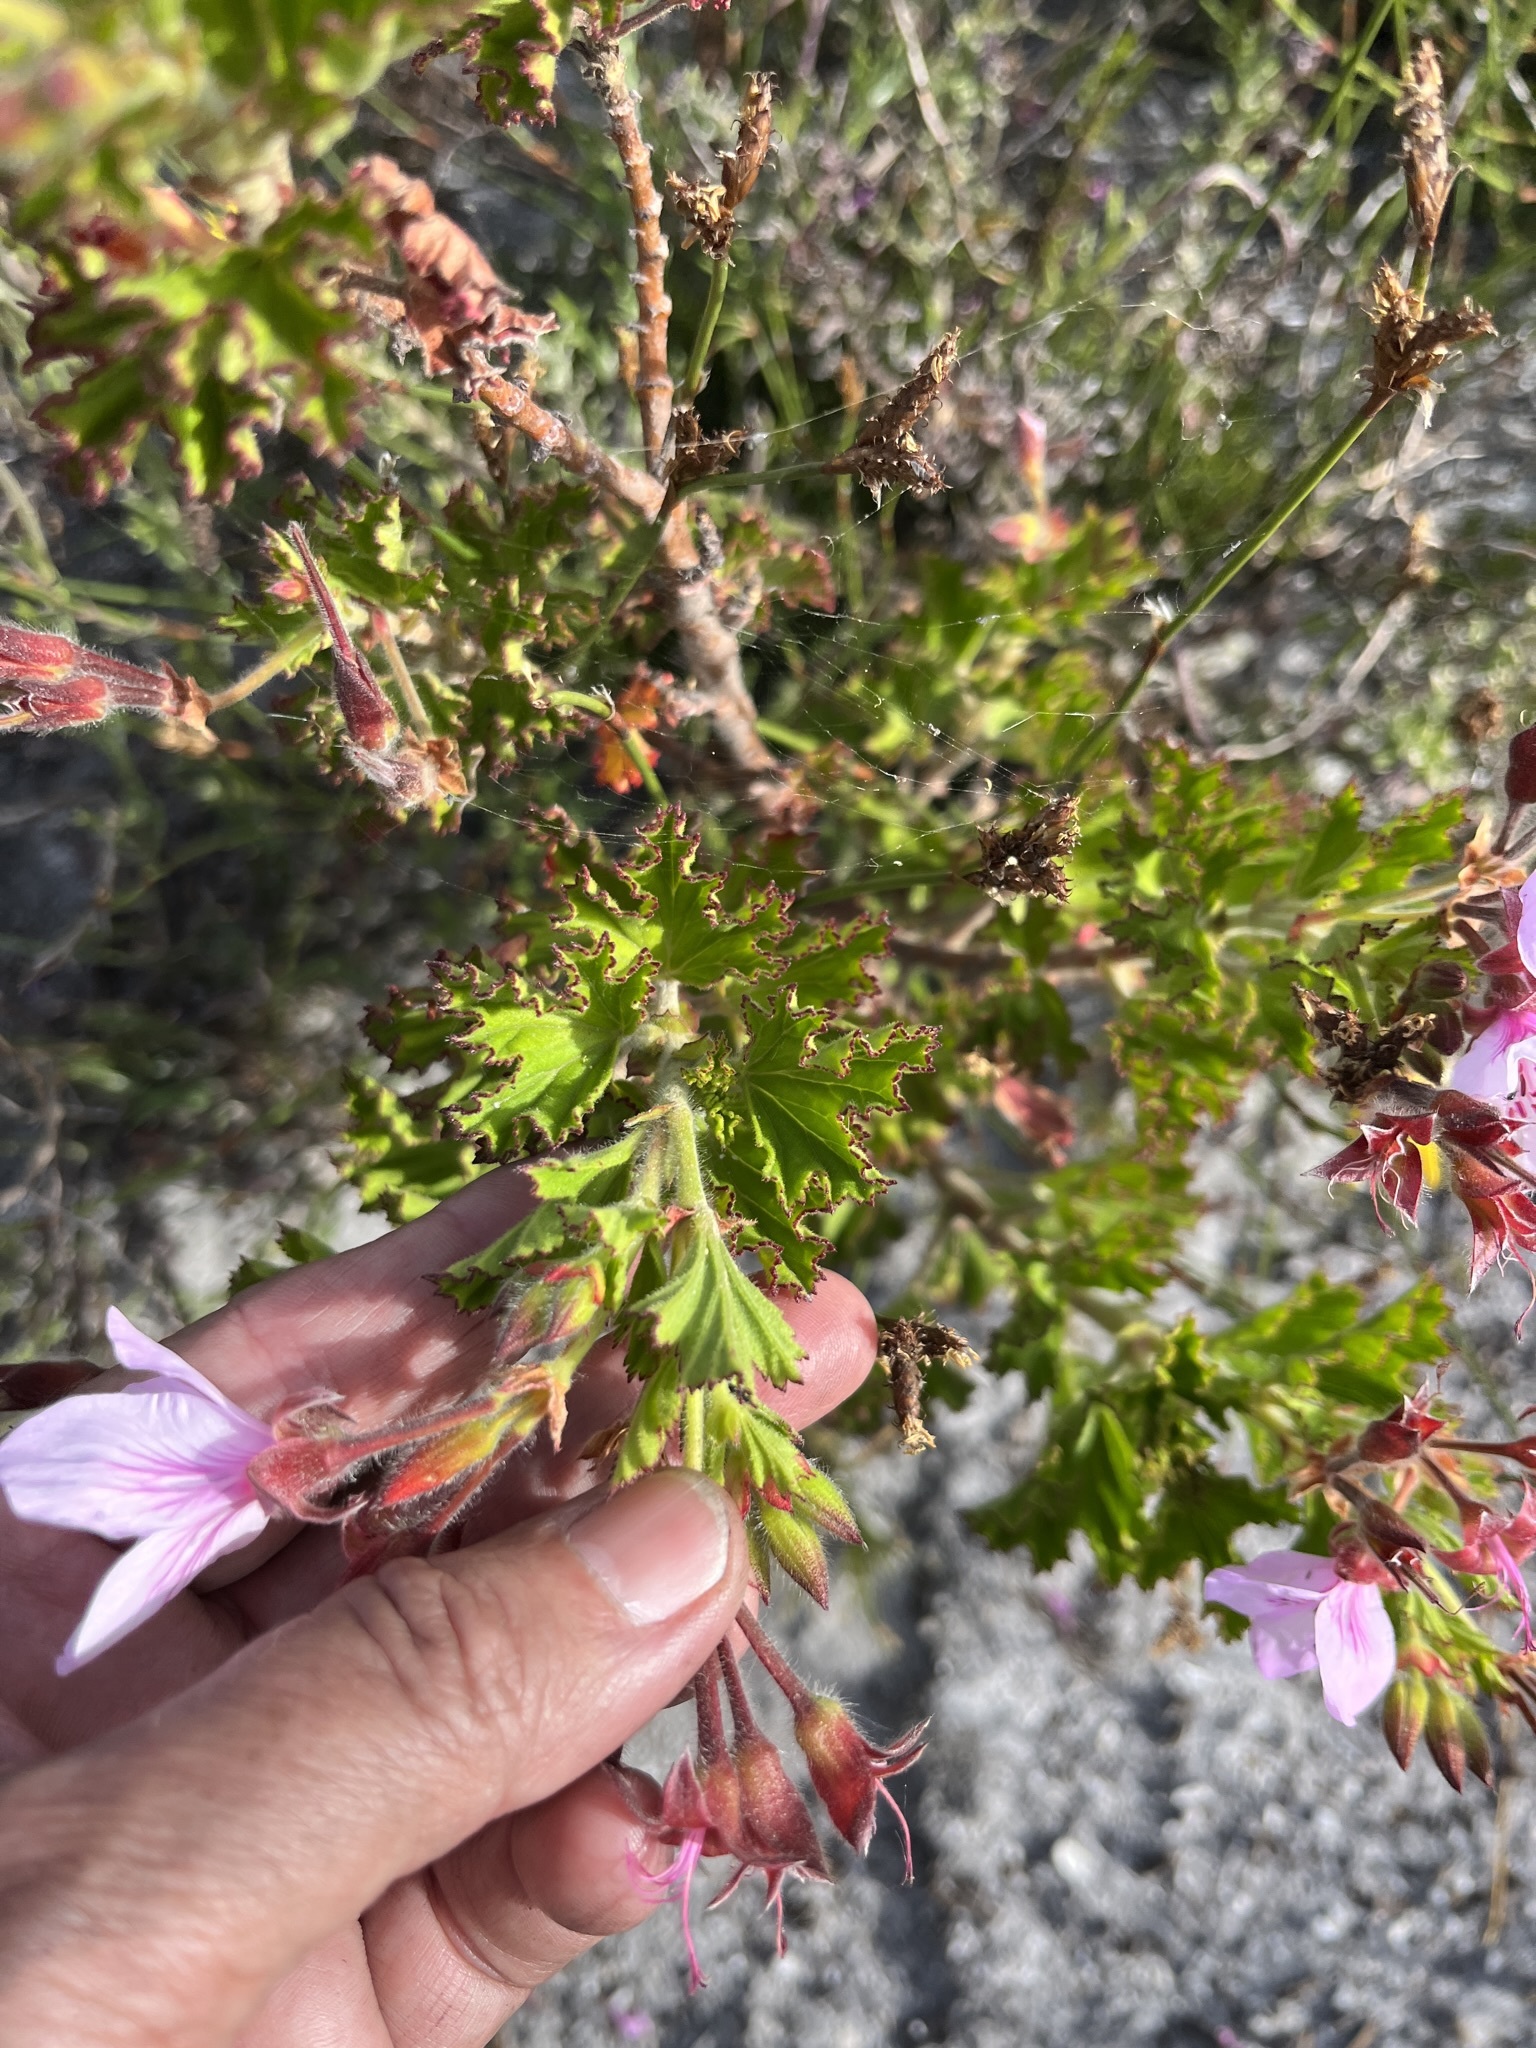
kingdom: Plantae
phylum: Tracheophyta
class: Magnoliopsida
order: Geraniales
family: Geraniaceae
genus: Pelargonium
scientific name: Pelargonium betulinum
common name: Birch-leaf pelargonium
